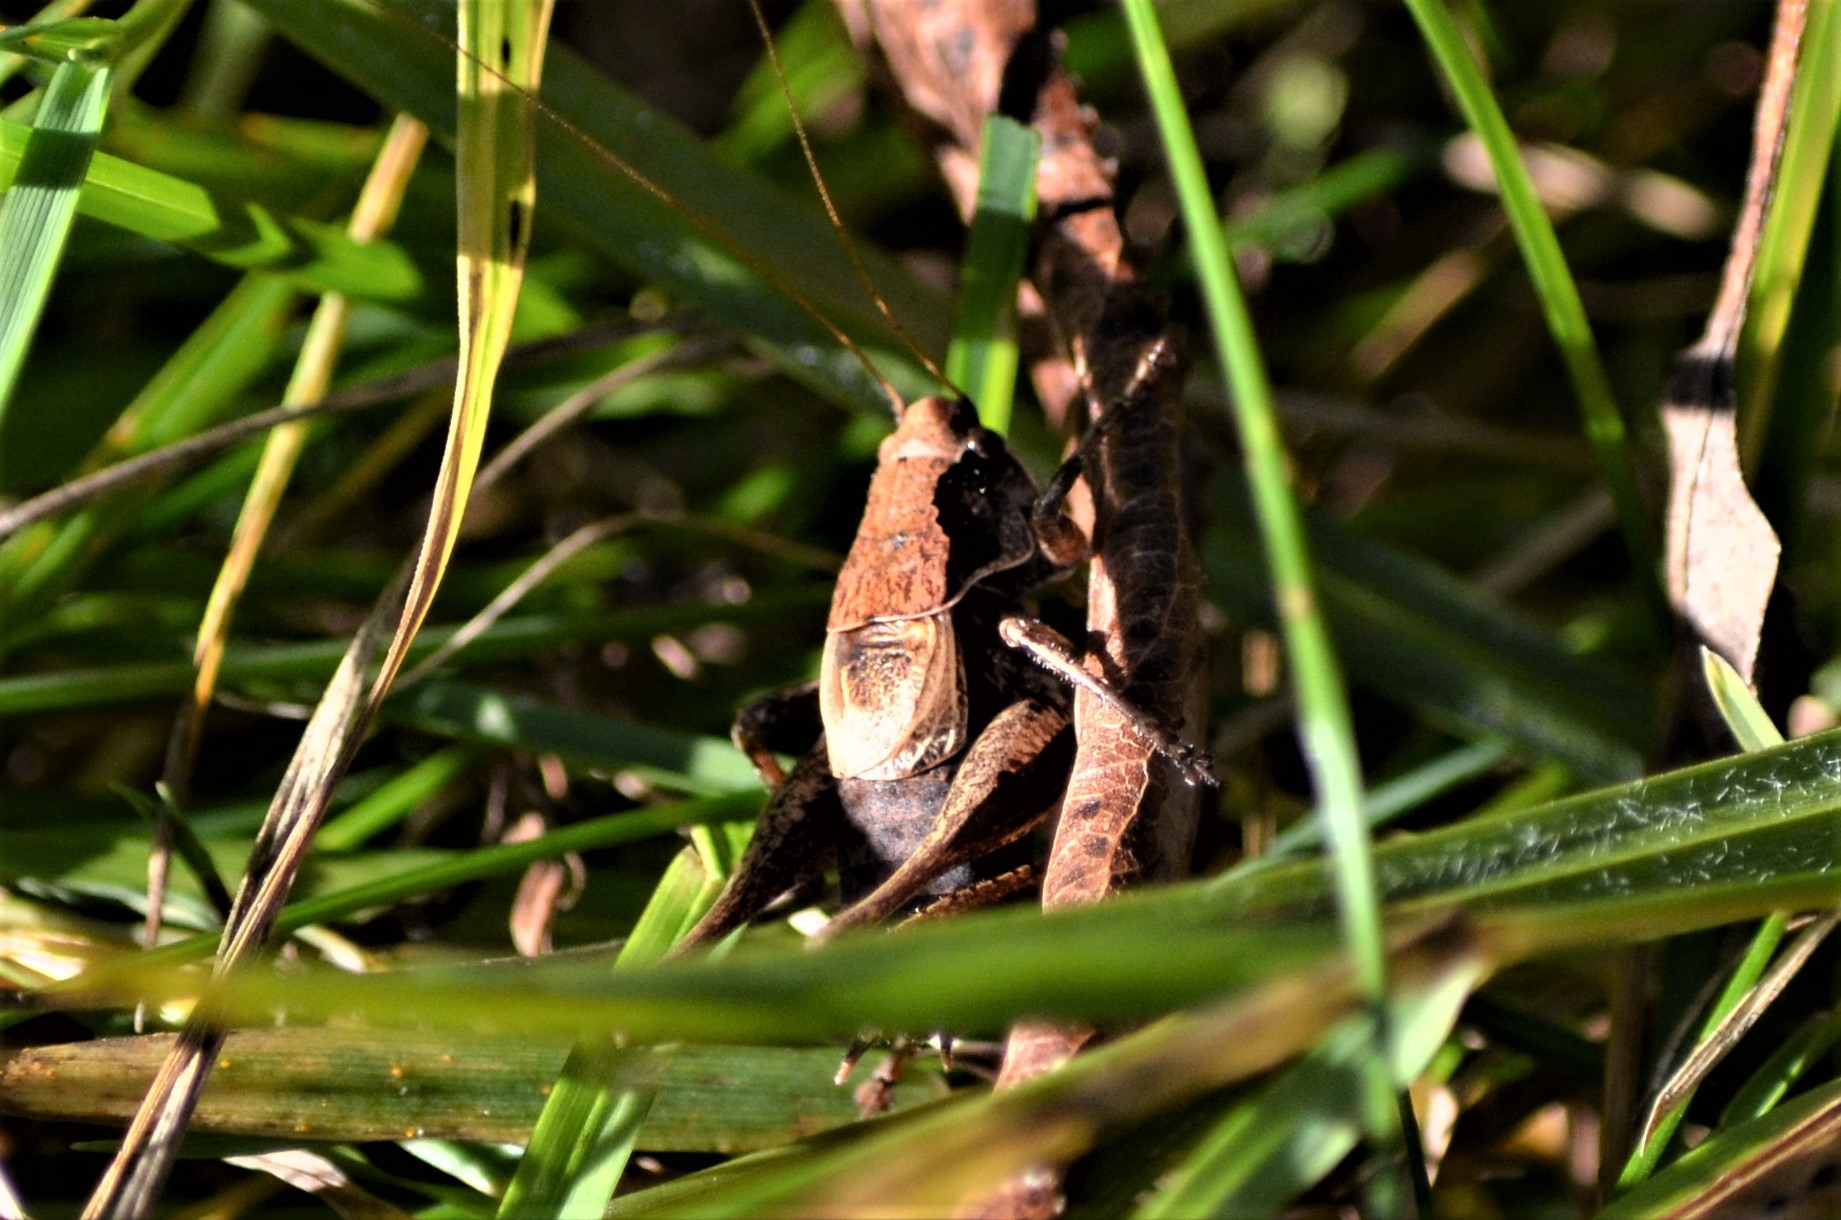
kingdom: Animalia
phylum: Arthropoda
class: Insecta
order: Orthoptera
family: Tettigoniidae
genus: Pholidoptera
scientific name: Pholidoptera griseoaptera
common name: Dark bush-cricket
